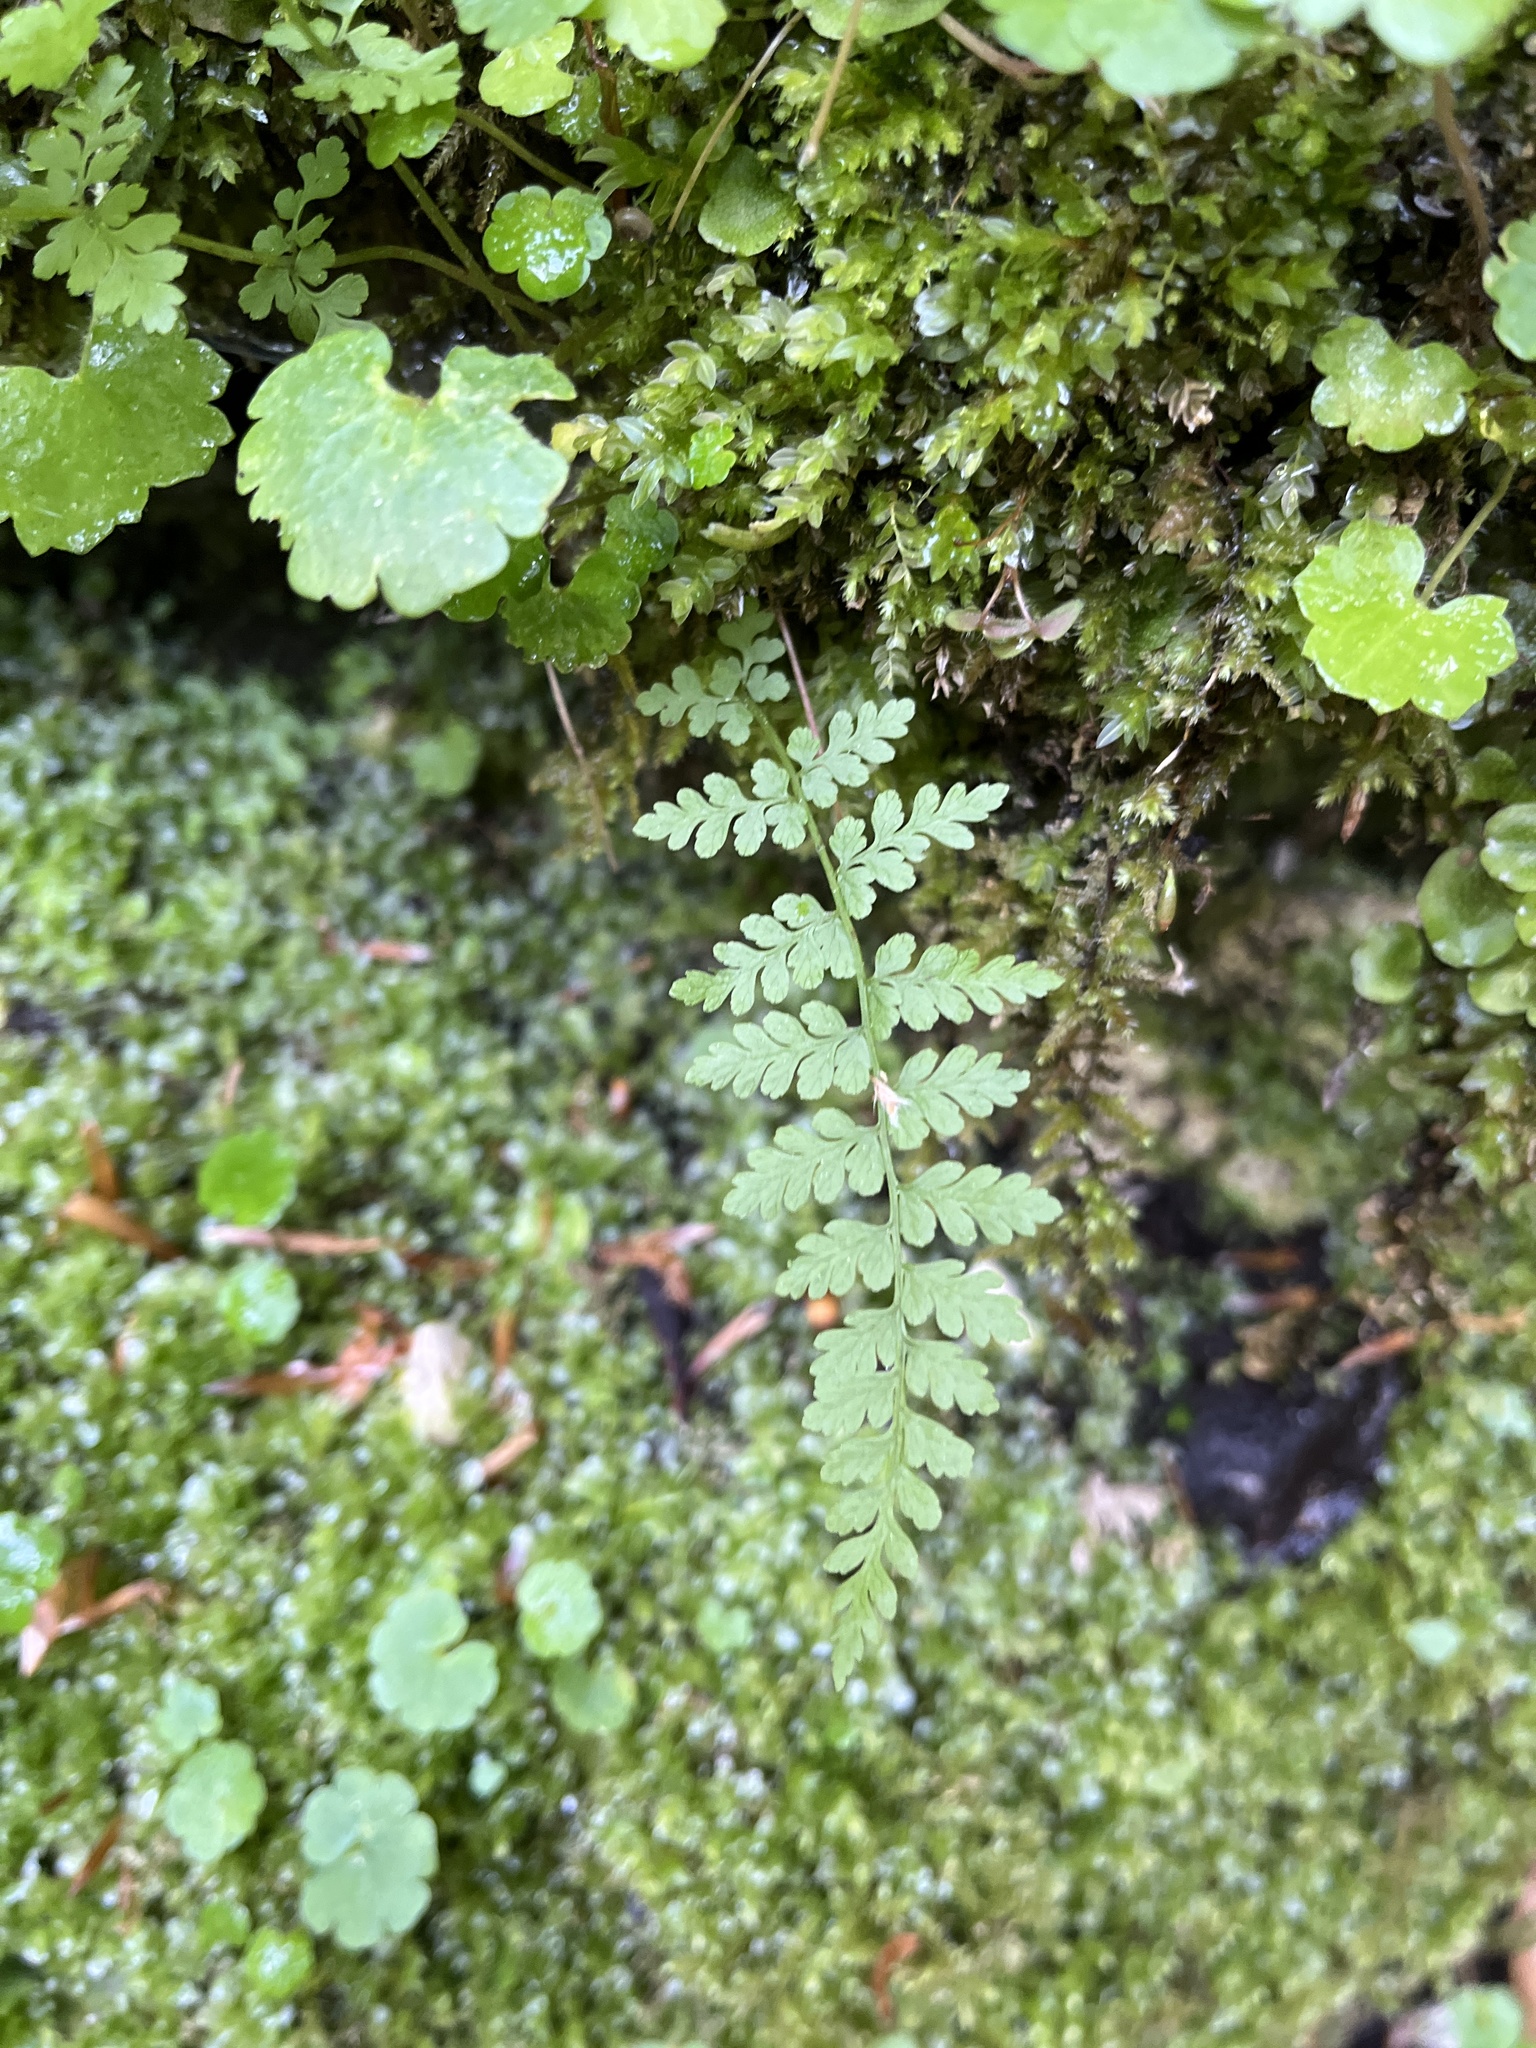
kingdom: Plantae
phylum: Tracheophyta
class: Polypodiopsida
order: Polypodiales
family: Cystopteridaceae
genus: Cystopteris
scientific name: Cystopteris fragilis
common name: Brittle bladder fern
